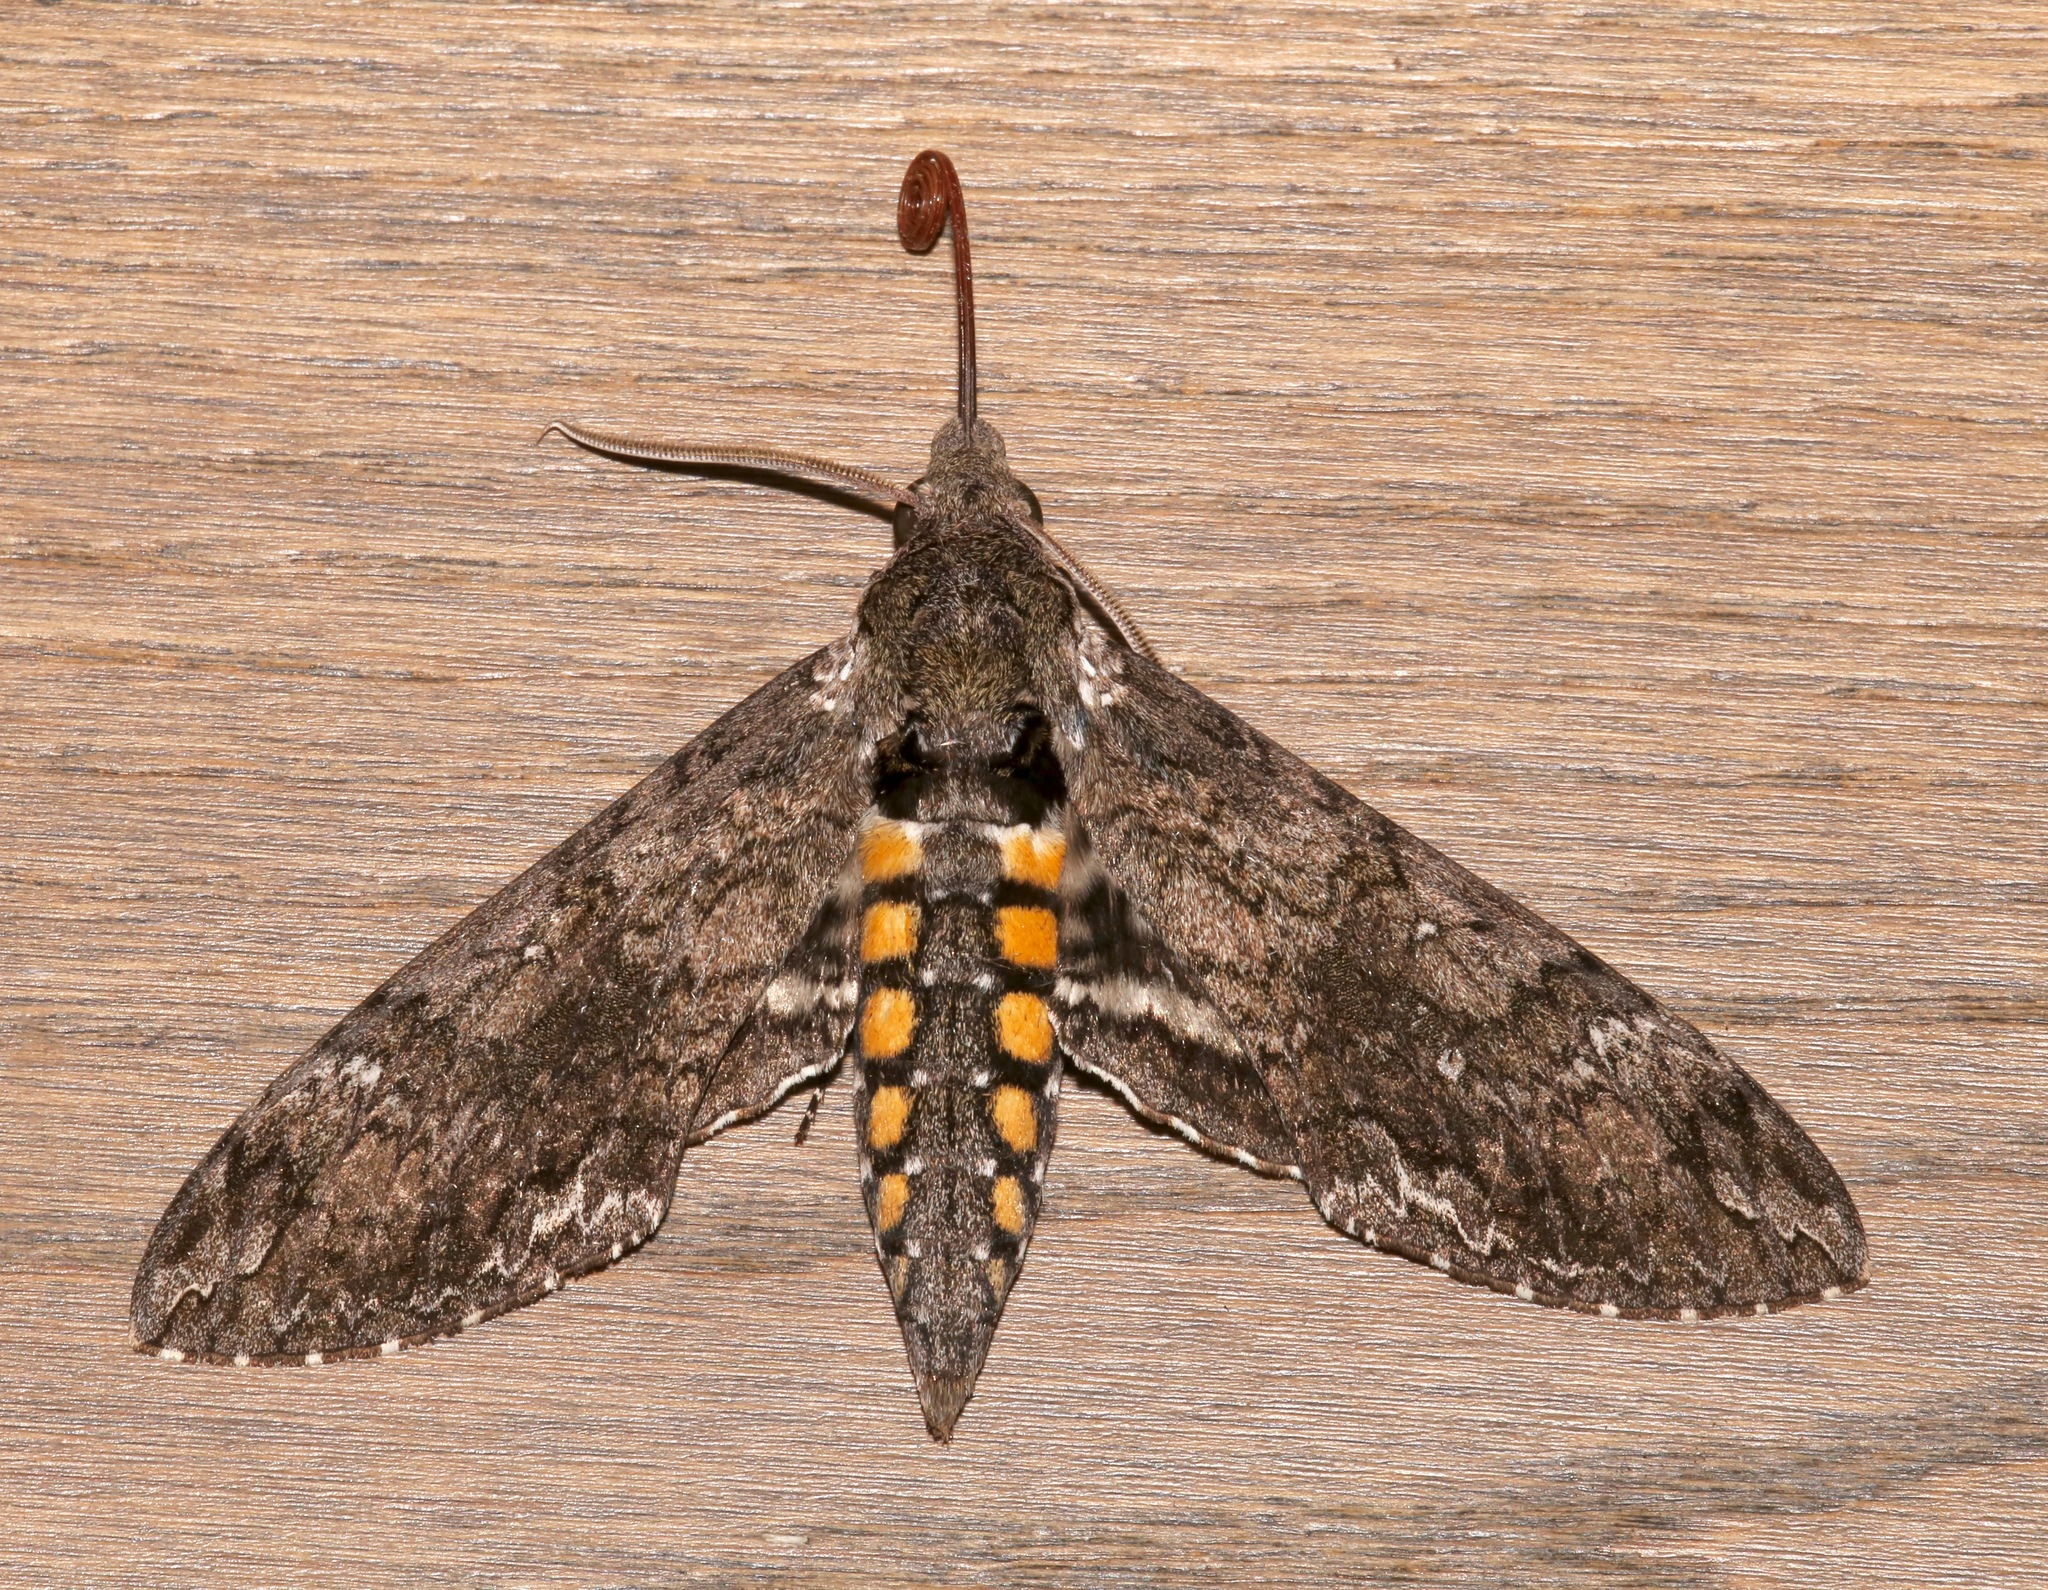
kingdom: Animalia
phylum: Arthropoda
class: Insecta
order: Lepidoptera
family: Sphingidae
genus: Manduca
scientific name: Manduca sexta
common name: Carolina sphinx
